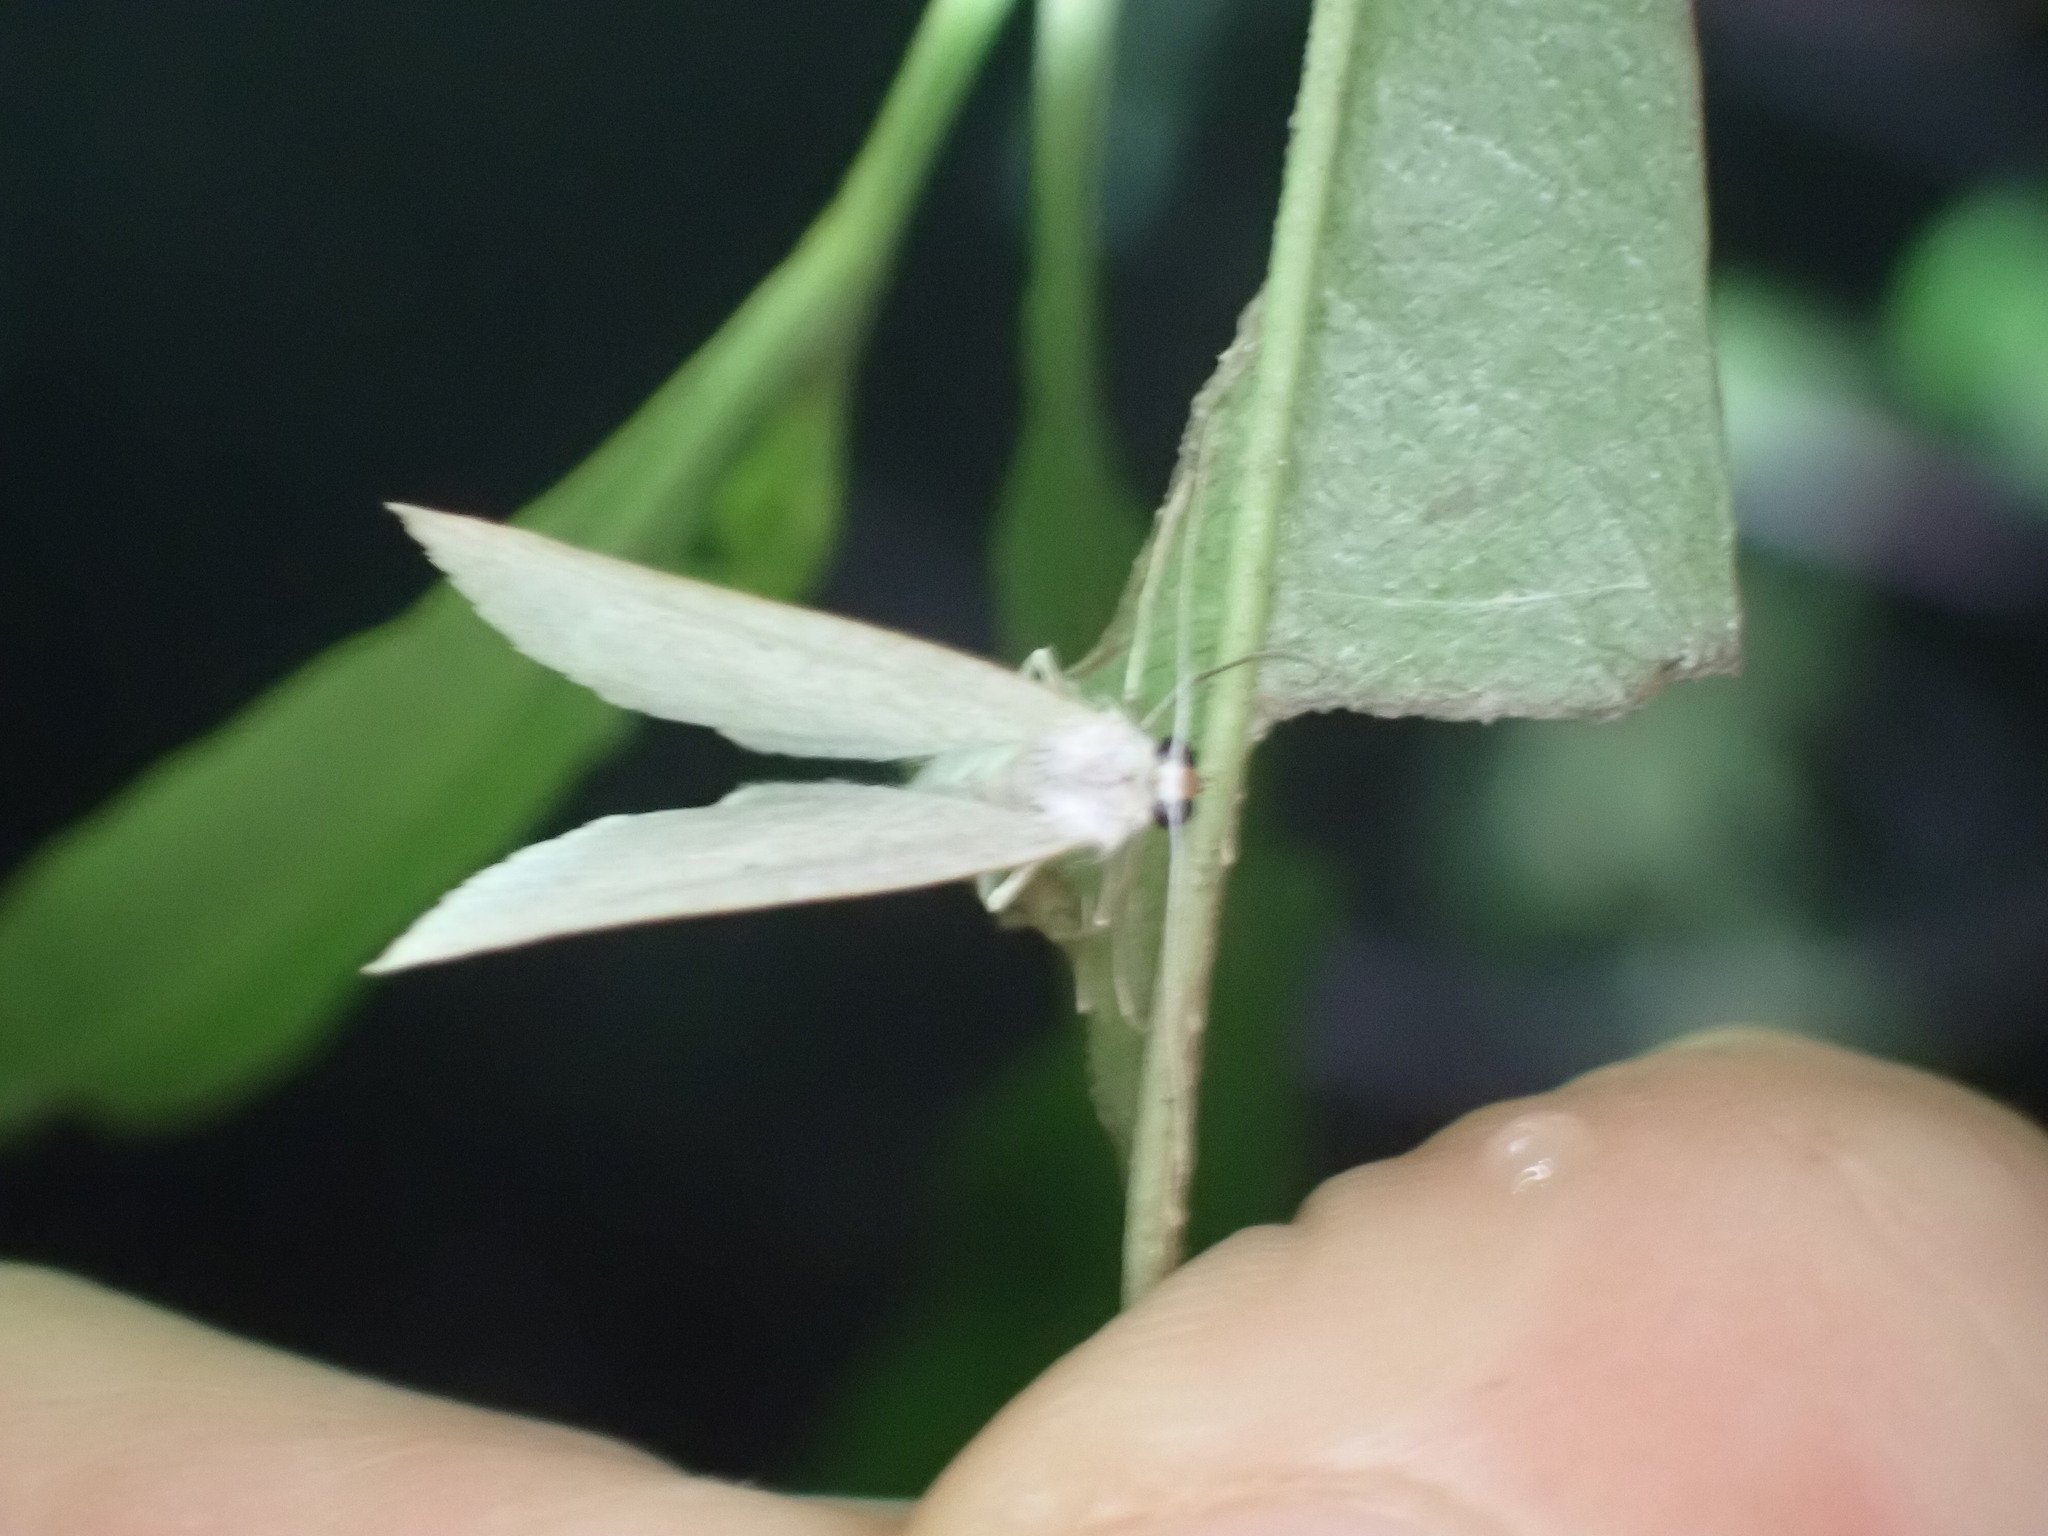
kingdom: Animalia
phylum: Arthropoda
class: Insecta
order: Lepidoptera
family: Geometridae
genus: Poecilasthena
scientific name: Poecilasthena pulchraria
